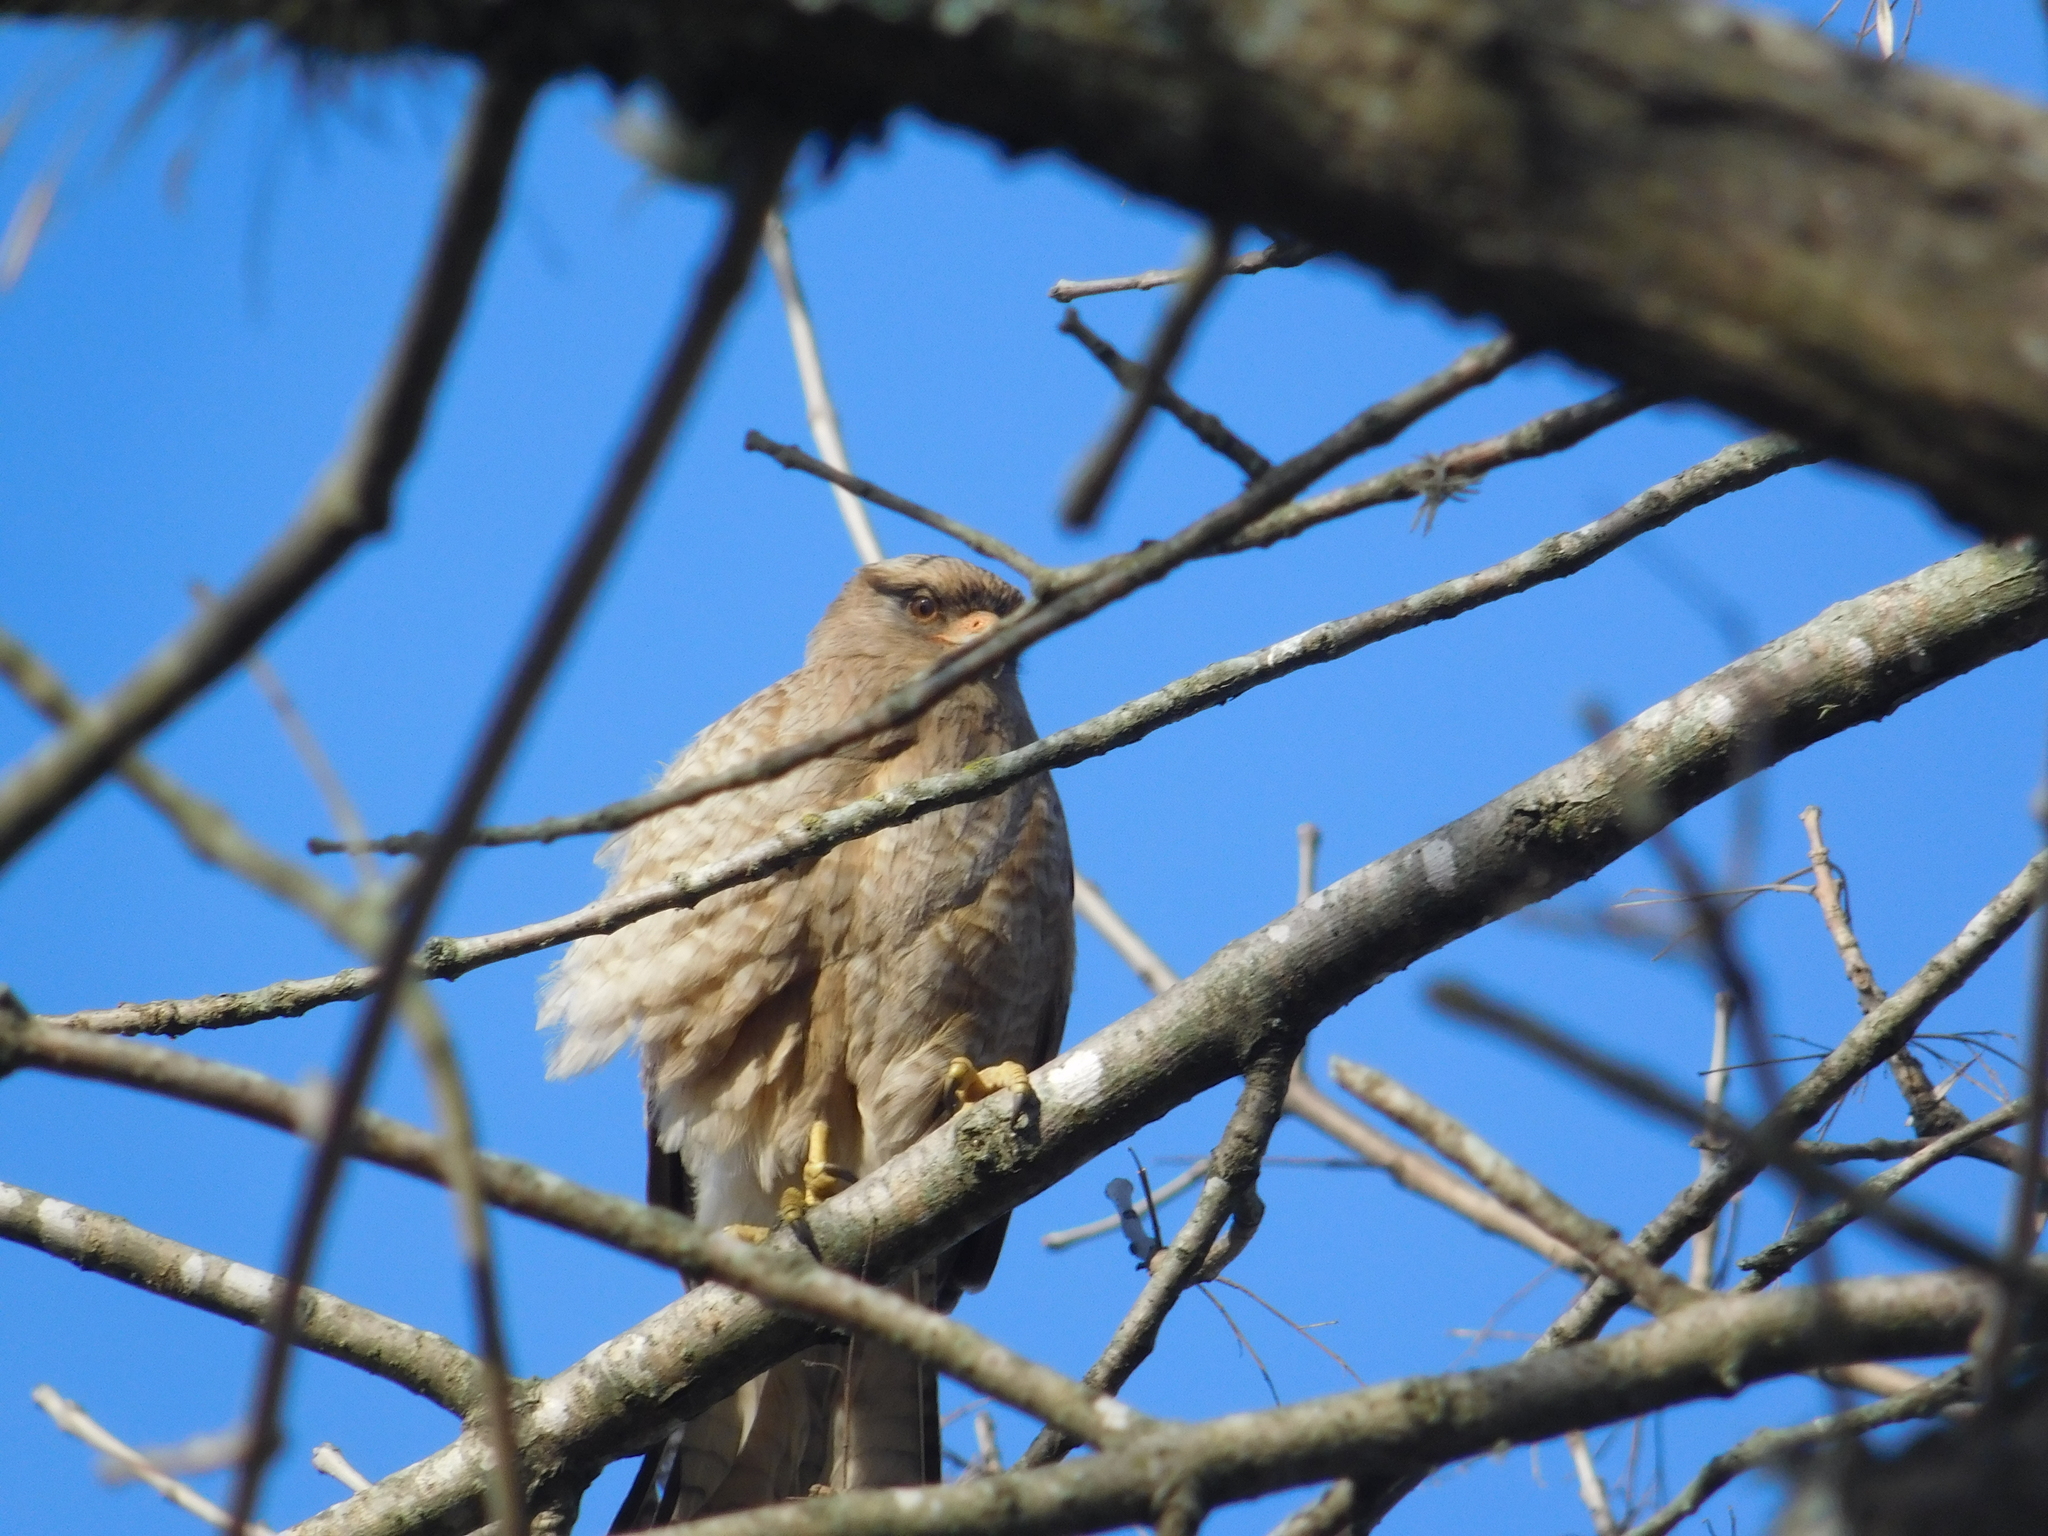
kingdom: Animalia
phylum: Chordata
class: Aves
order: Falconiformes
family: Falconidae
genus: Daptrius
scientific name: Daptrius
